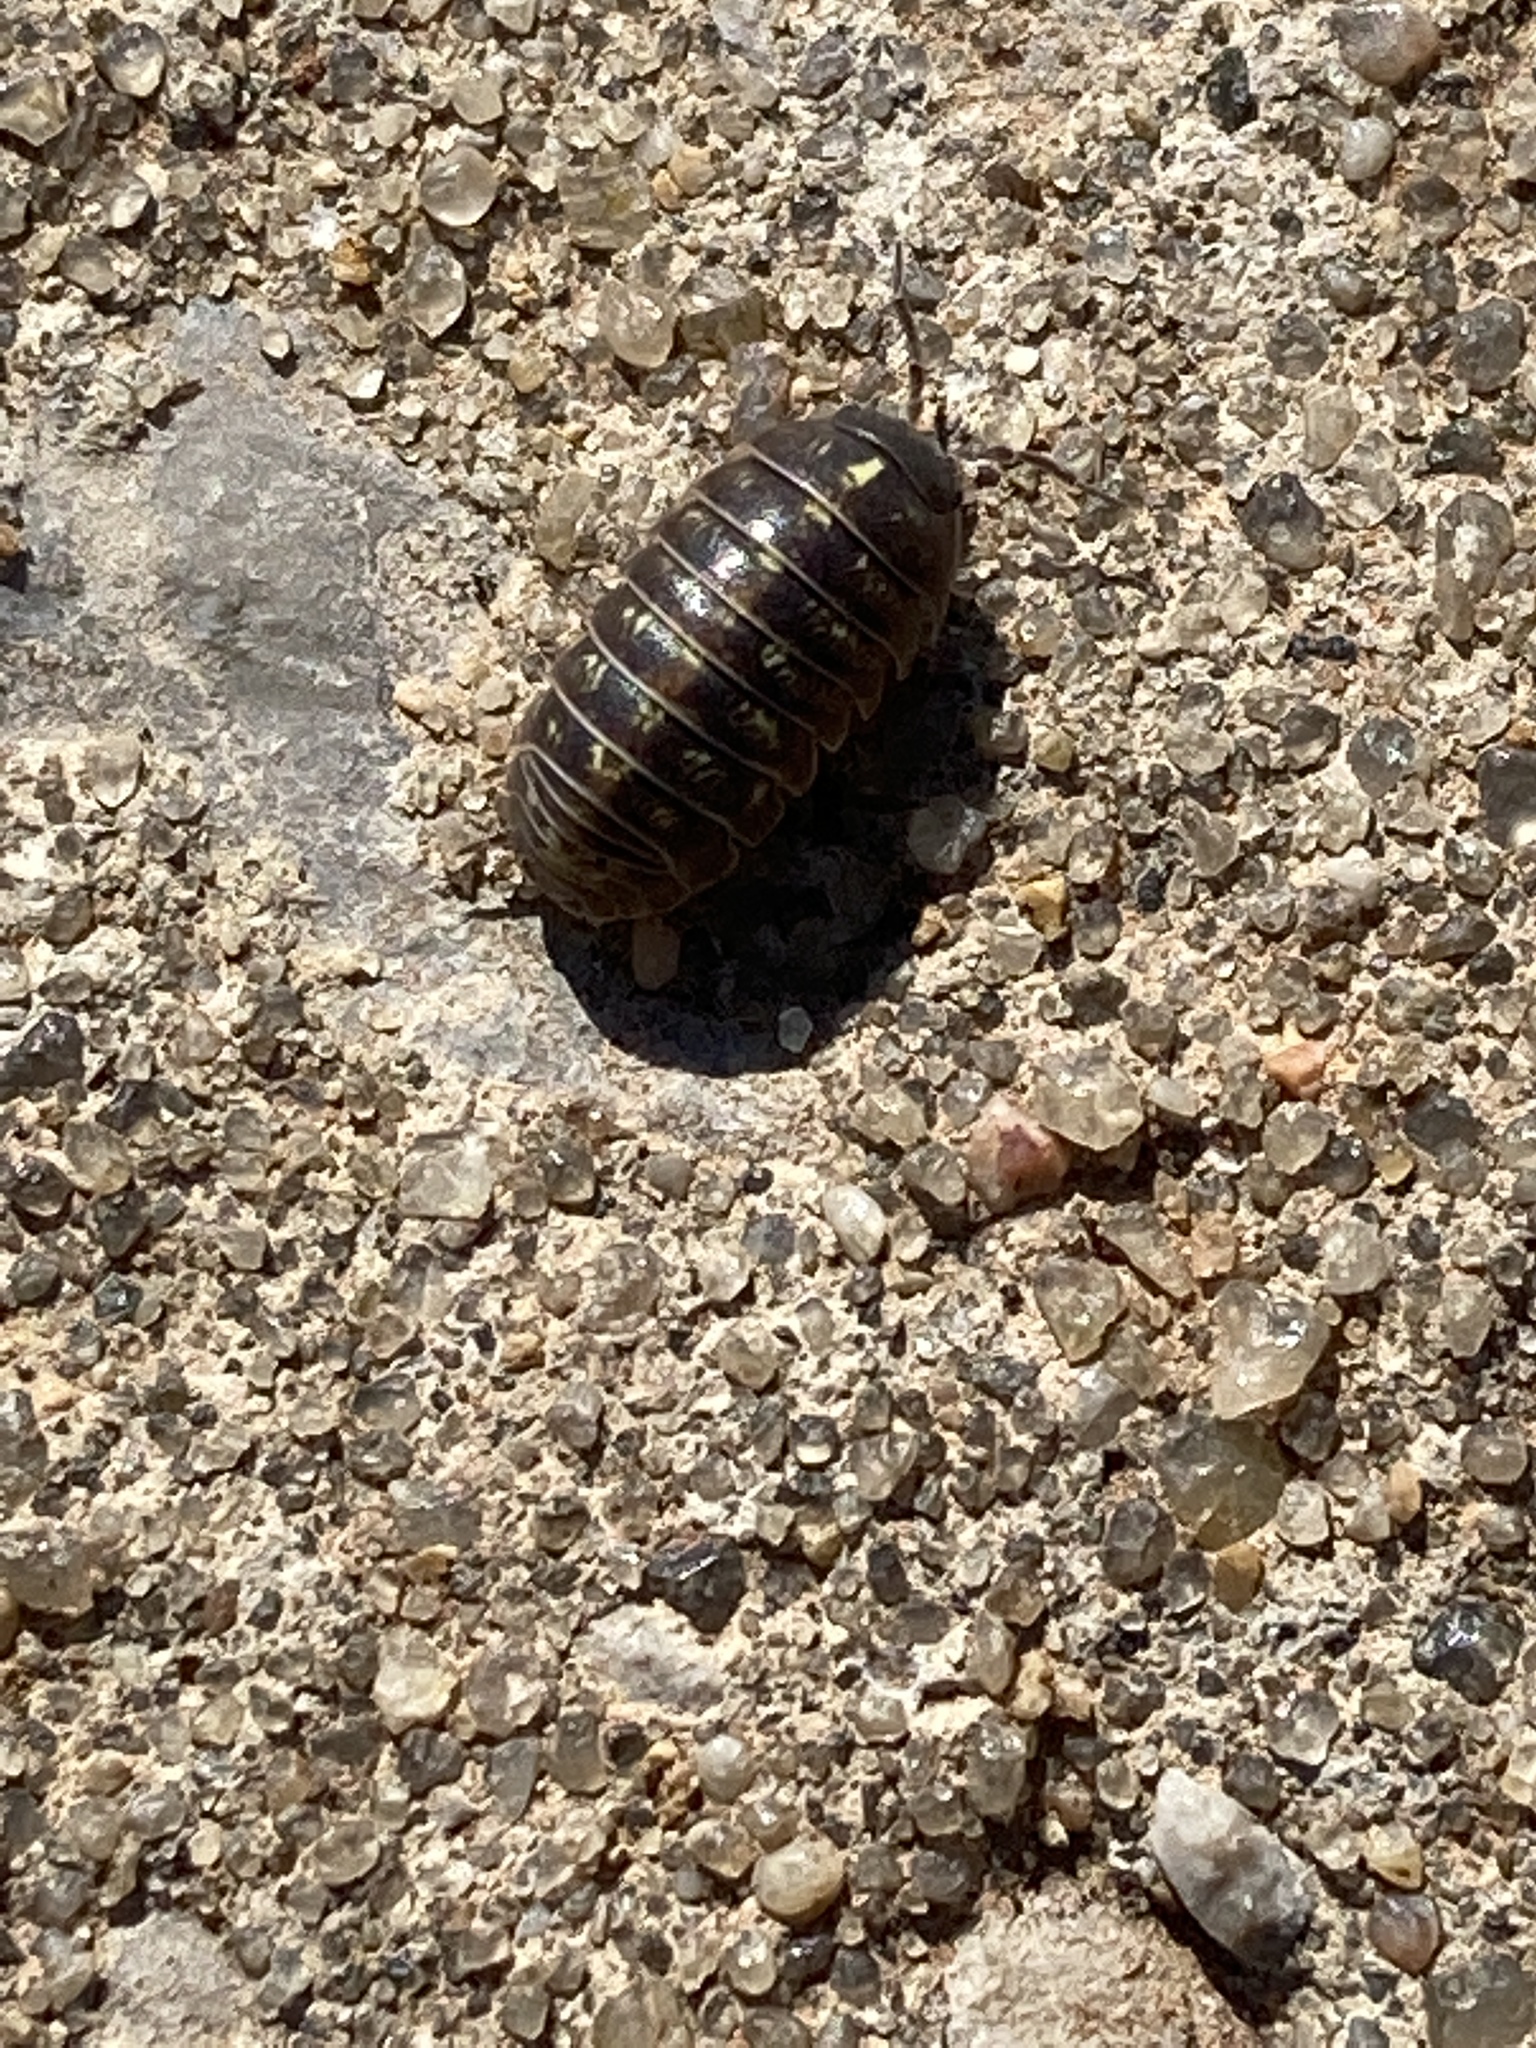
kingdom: Animalia
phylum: Arthropoda
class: Malacostraca
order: Isopoda
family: Armadillidiidae
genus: Armadillidium
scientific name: Armadillidium vulgare
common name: Common pill woodlouse
